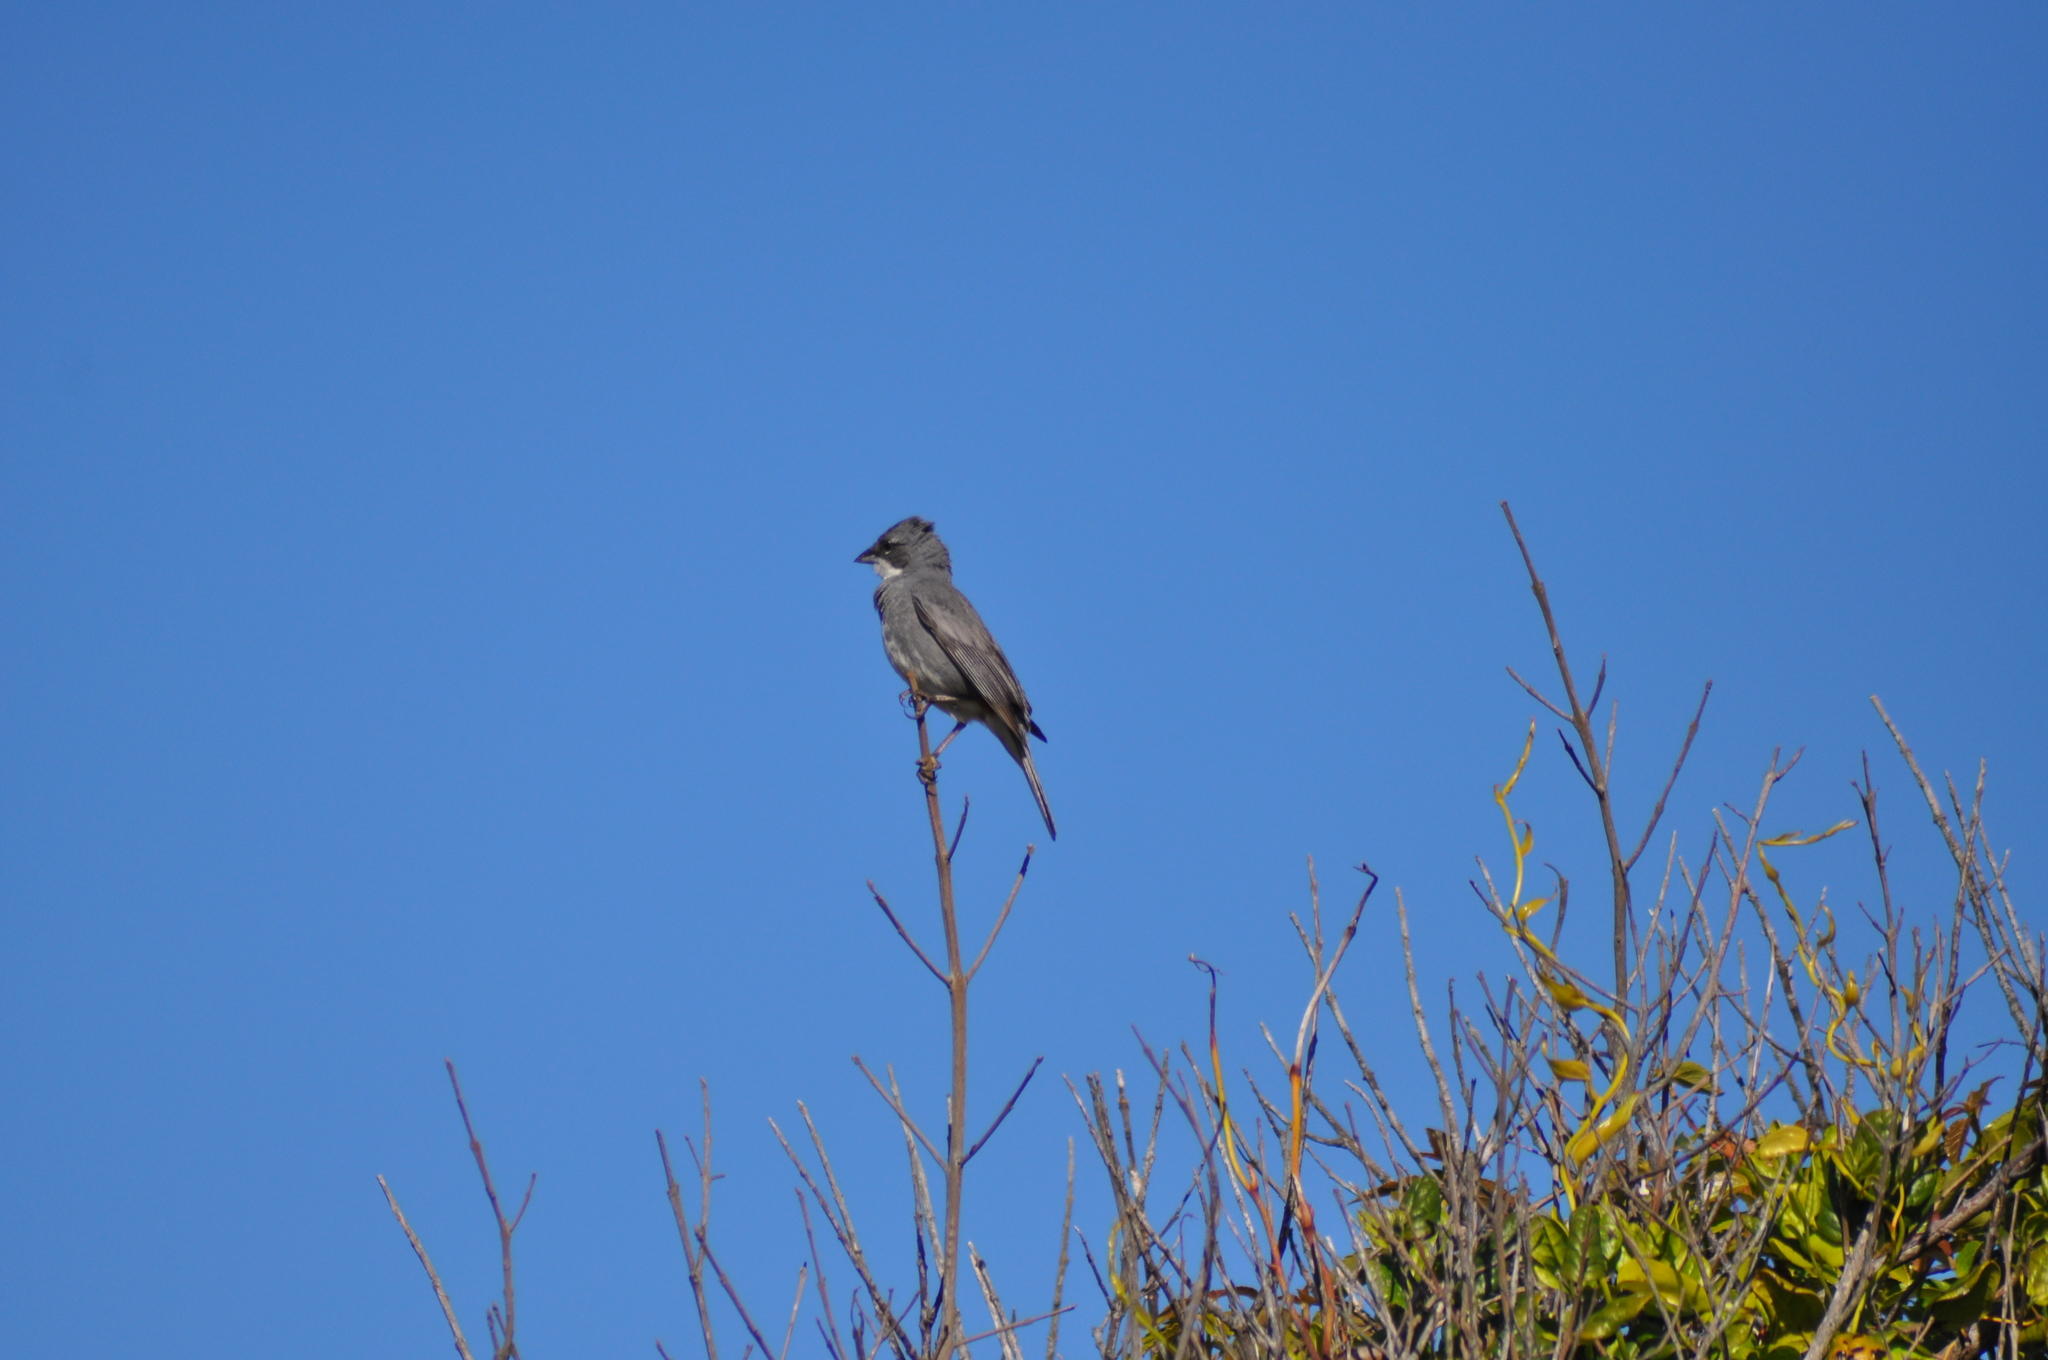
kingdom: Animalia
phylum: Chordata
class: Aves
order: Passeriformes
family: Thraupidae
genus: Diuca
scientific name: Diuca diuca
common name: Common diuca finch
